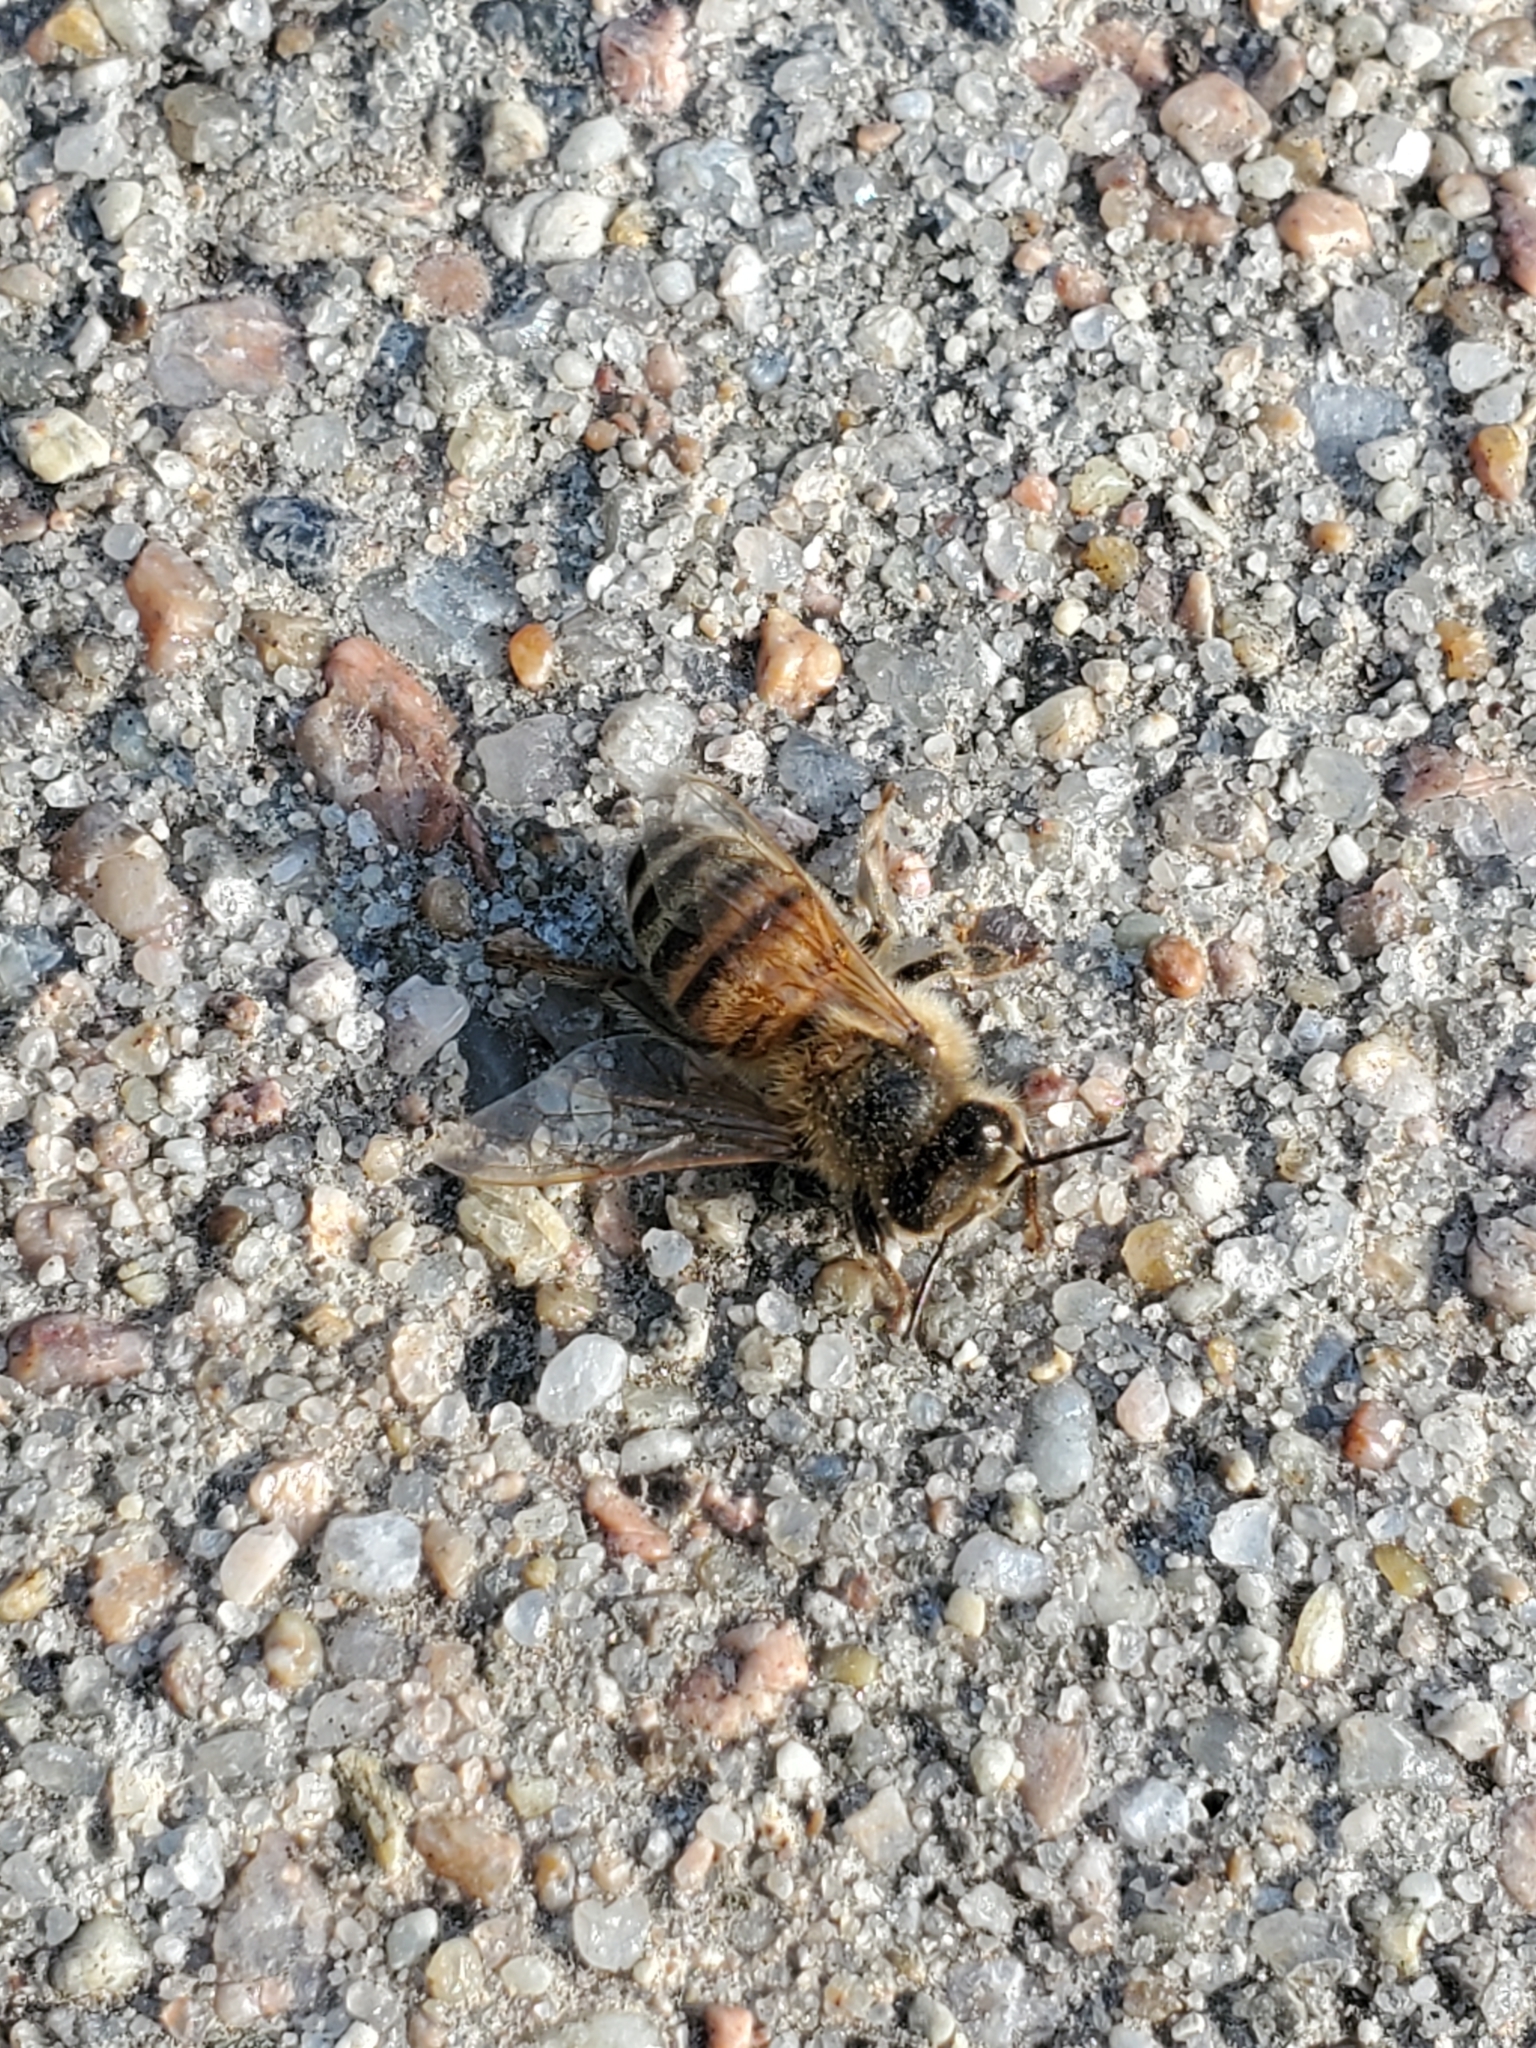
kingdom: Animalia
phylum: Arthropoda
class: Insecta
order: Hymenoptera
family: Apidae
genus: Apis
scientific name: Apis mellifera
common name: Honey bee
